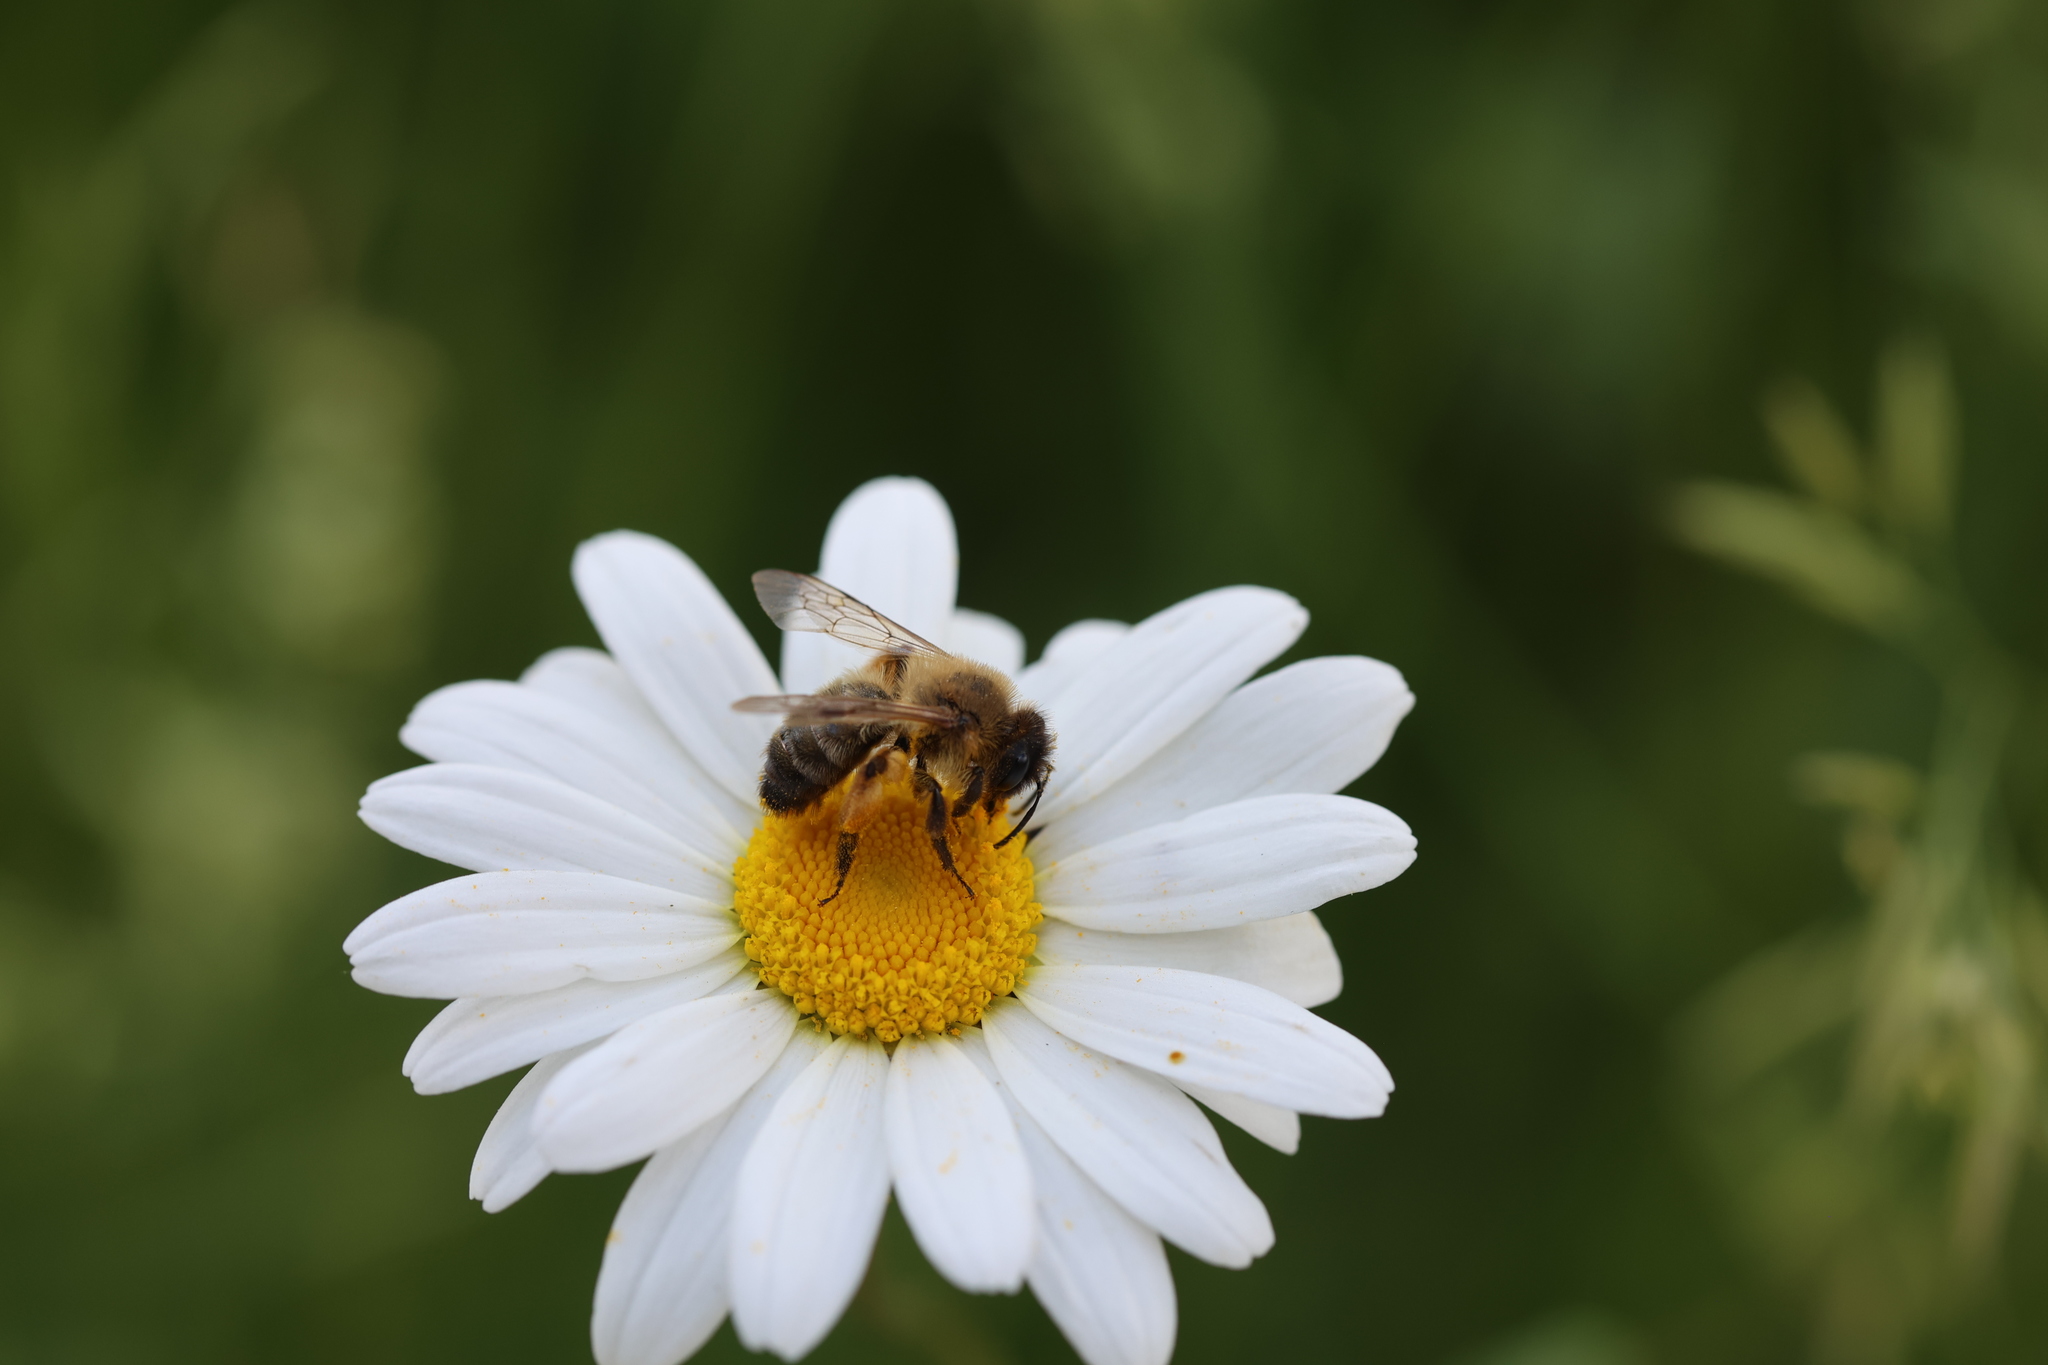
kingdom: Animalia
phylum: Arthropoda
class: Insecta
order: Hymenoptera
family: Andrenidae
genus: Andrena
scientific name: Andrena carantonica
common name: Chocolate mining bee
